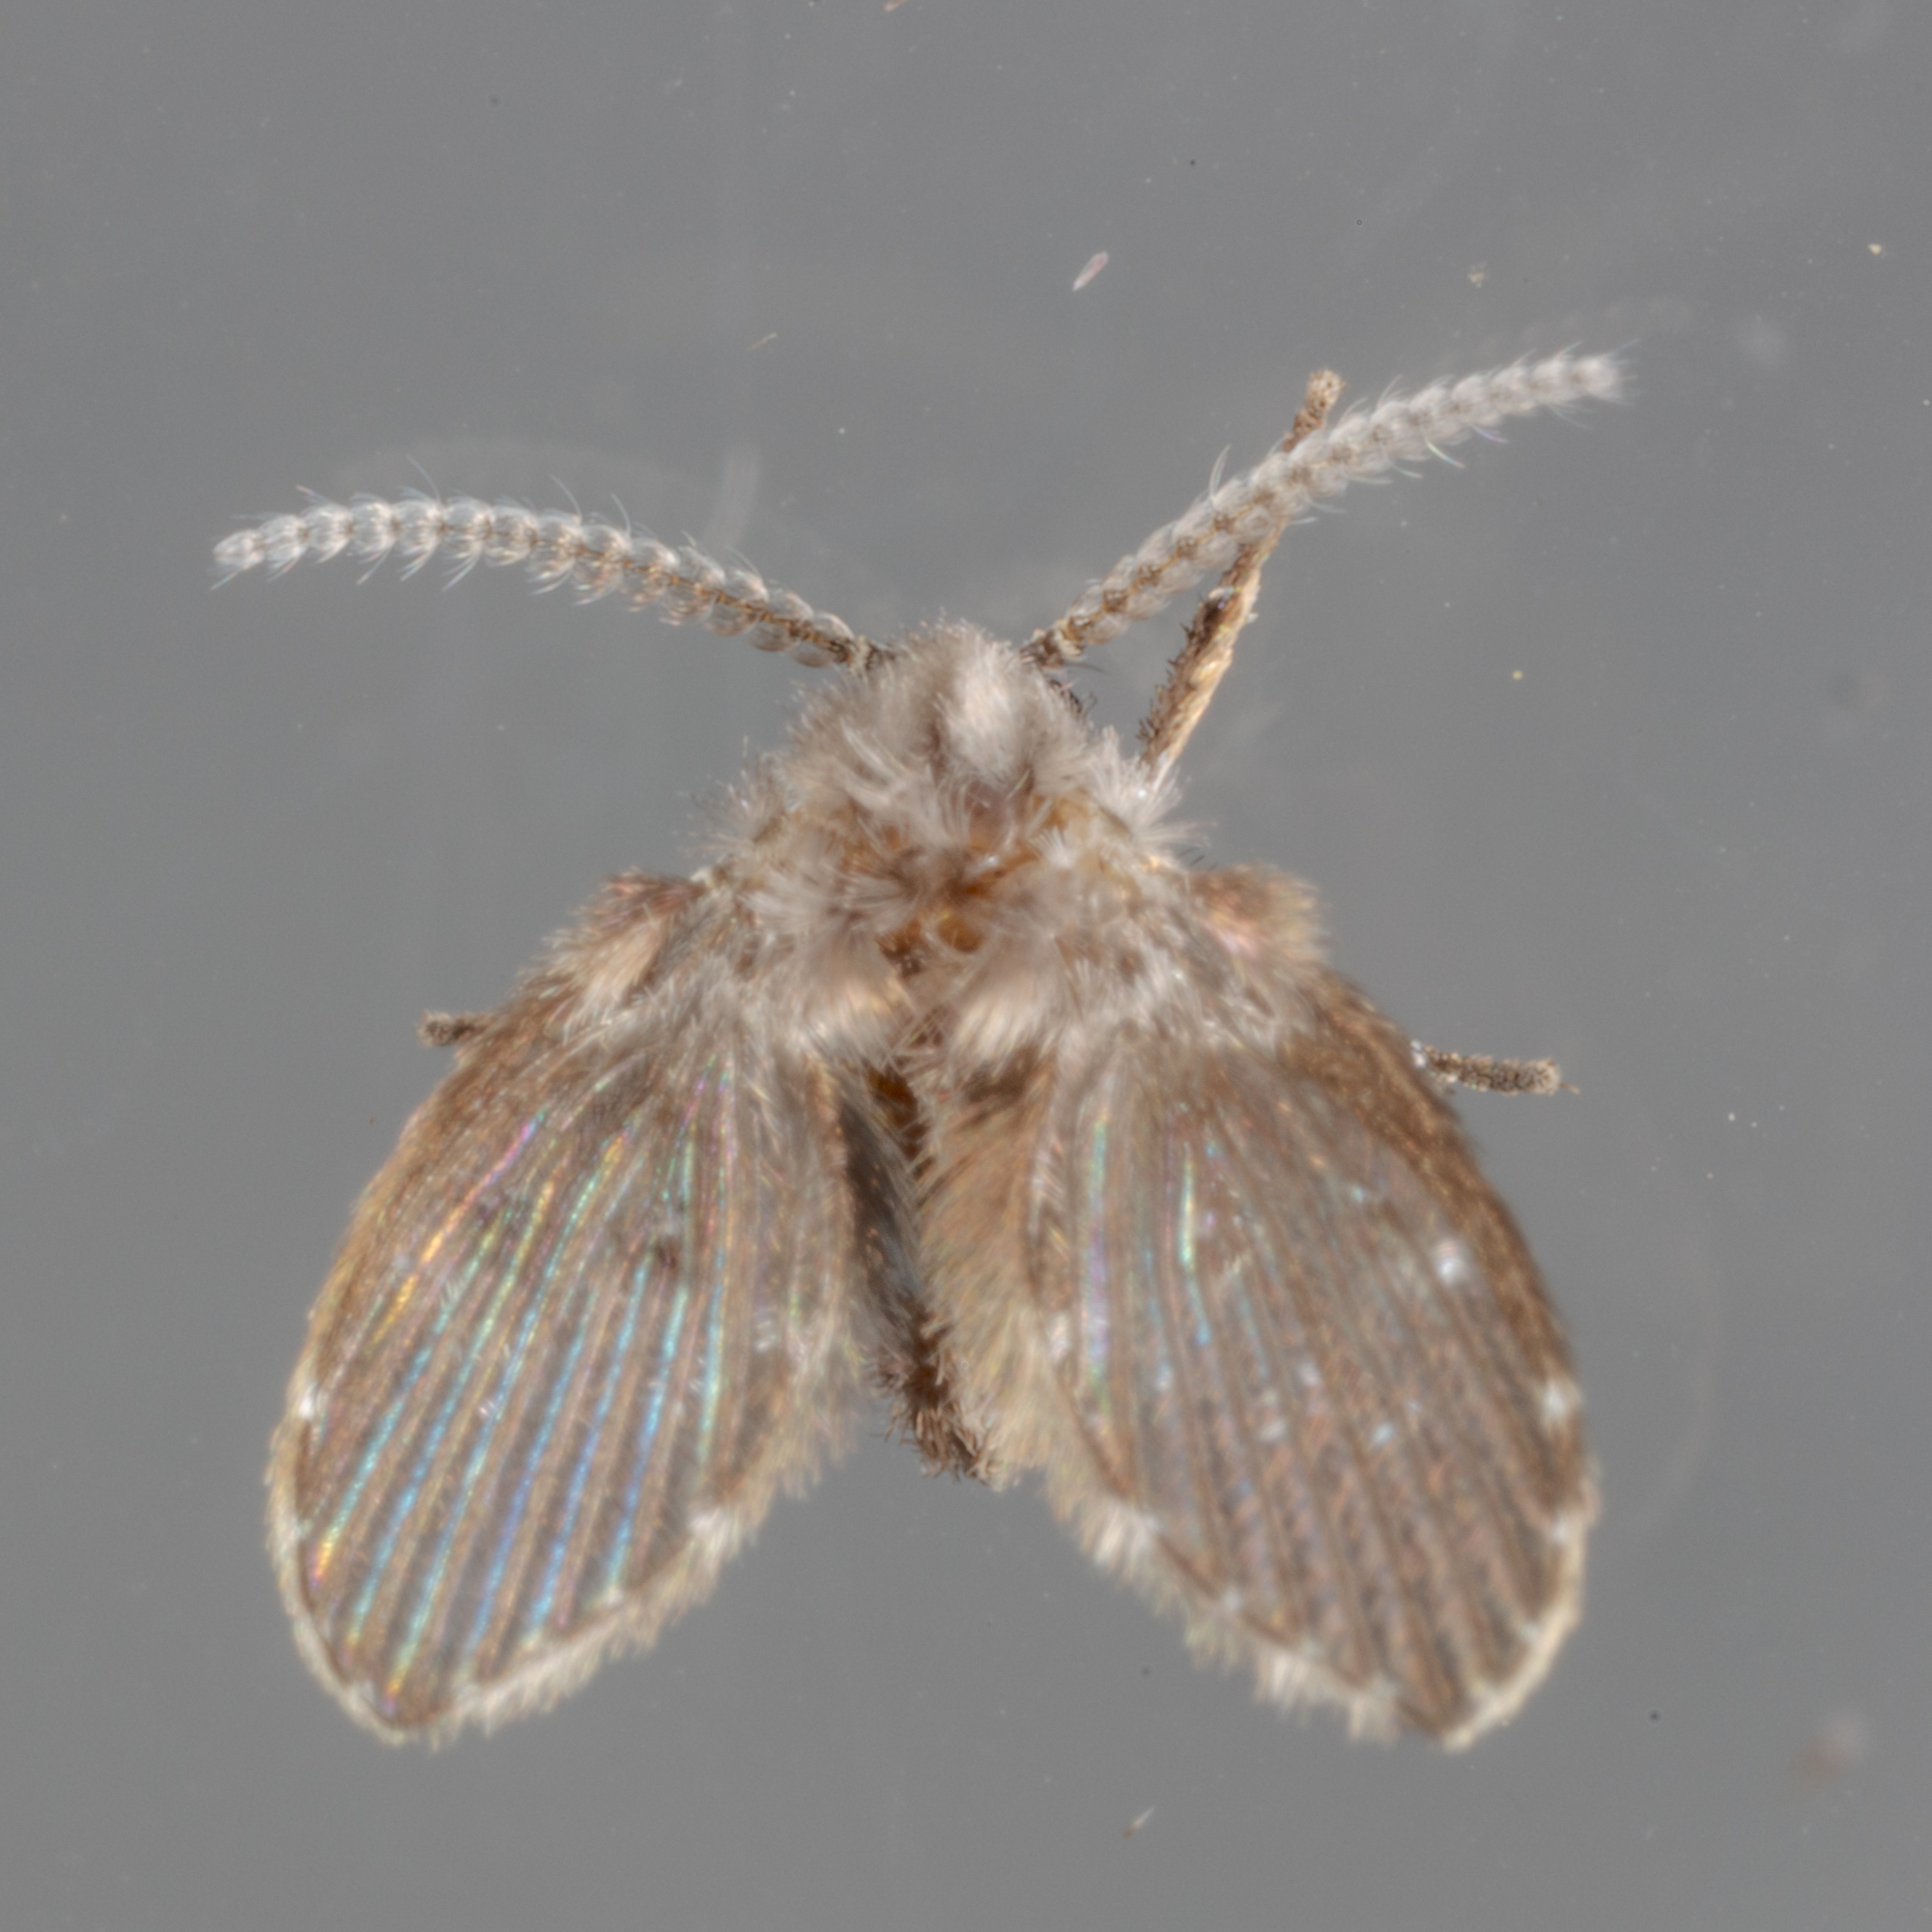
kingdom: Animalia
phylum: Arthropoda
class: Insecta
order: Diptera
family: Psychodidae
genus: Clogmia
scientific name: Clogmia albipunctatus
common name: White-spotted moth fly
